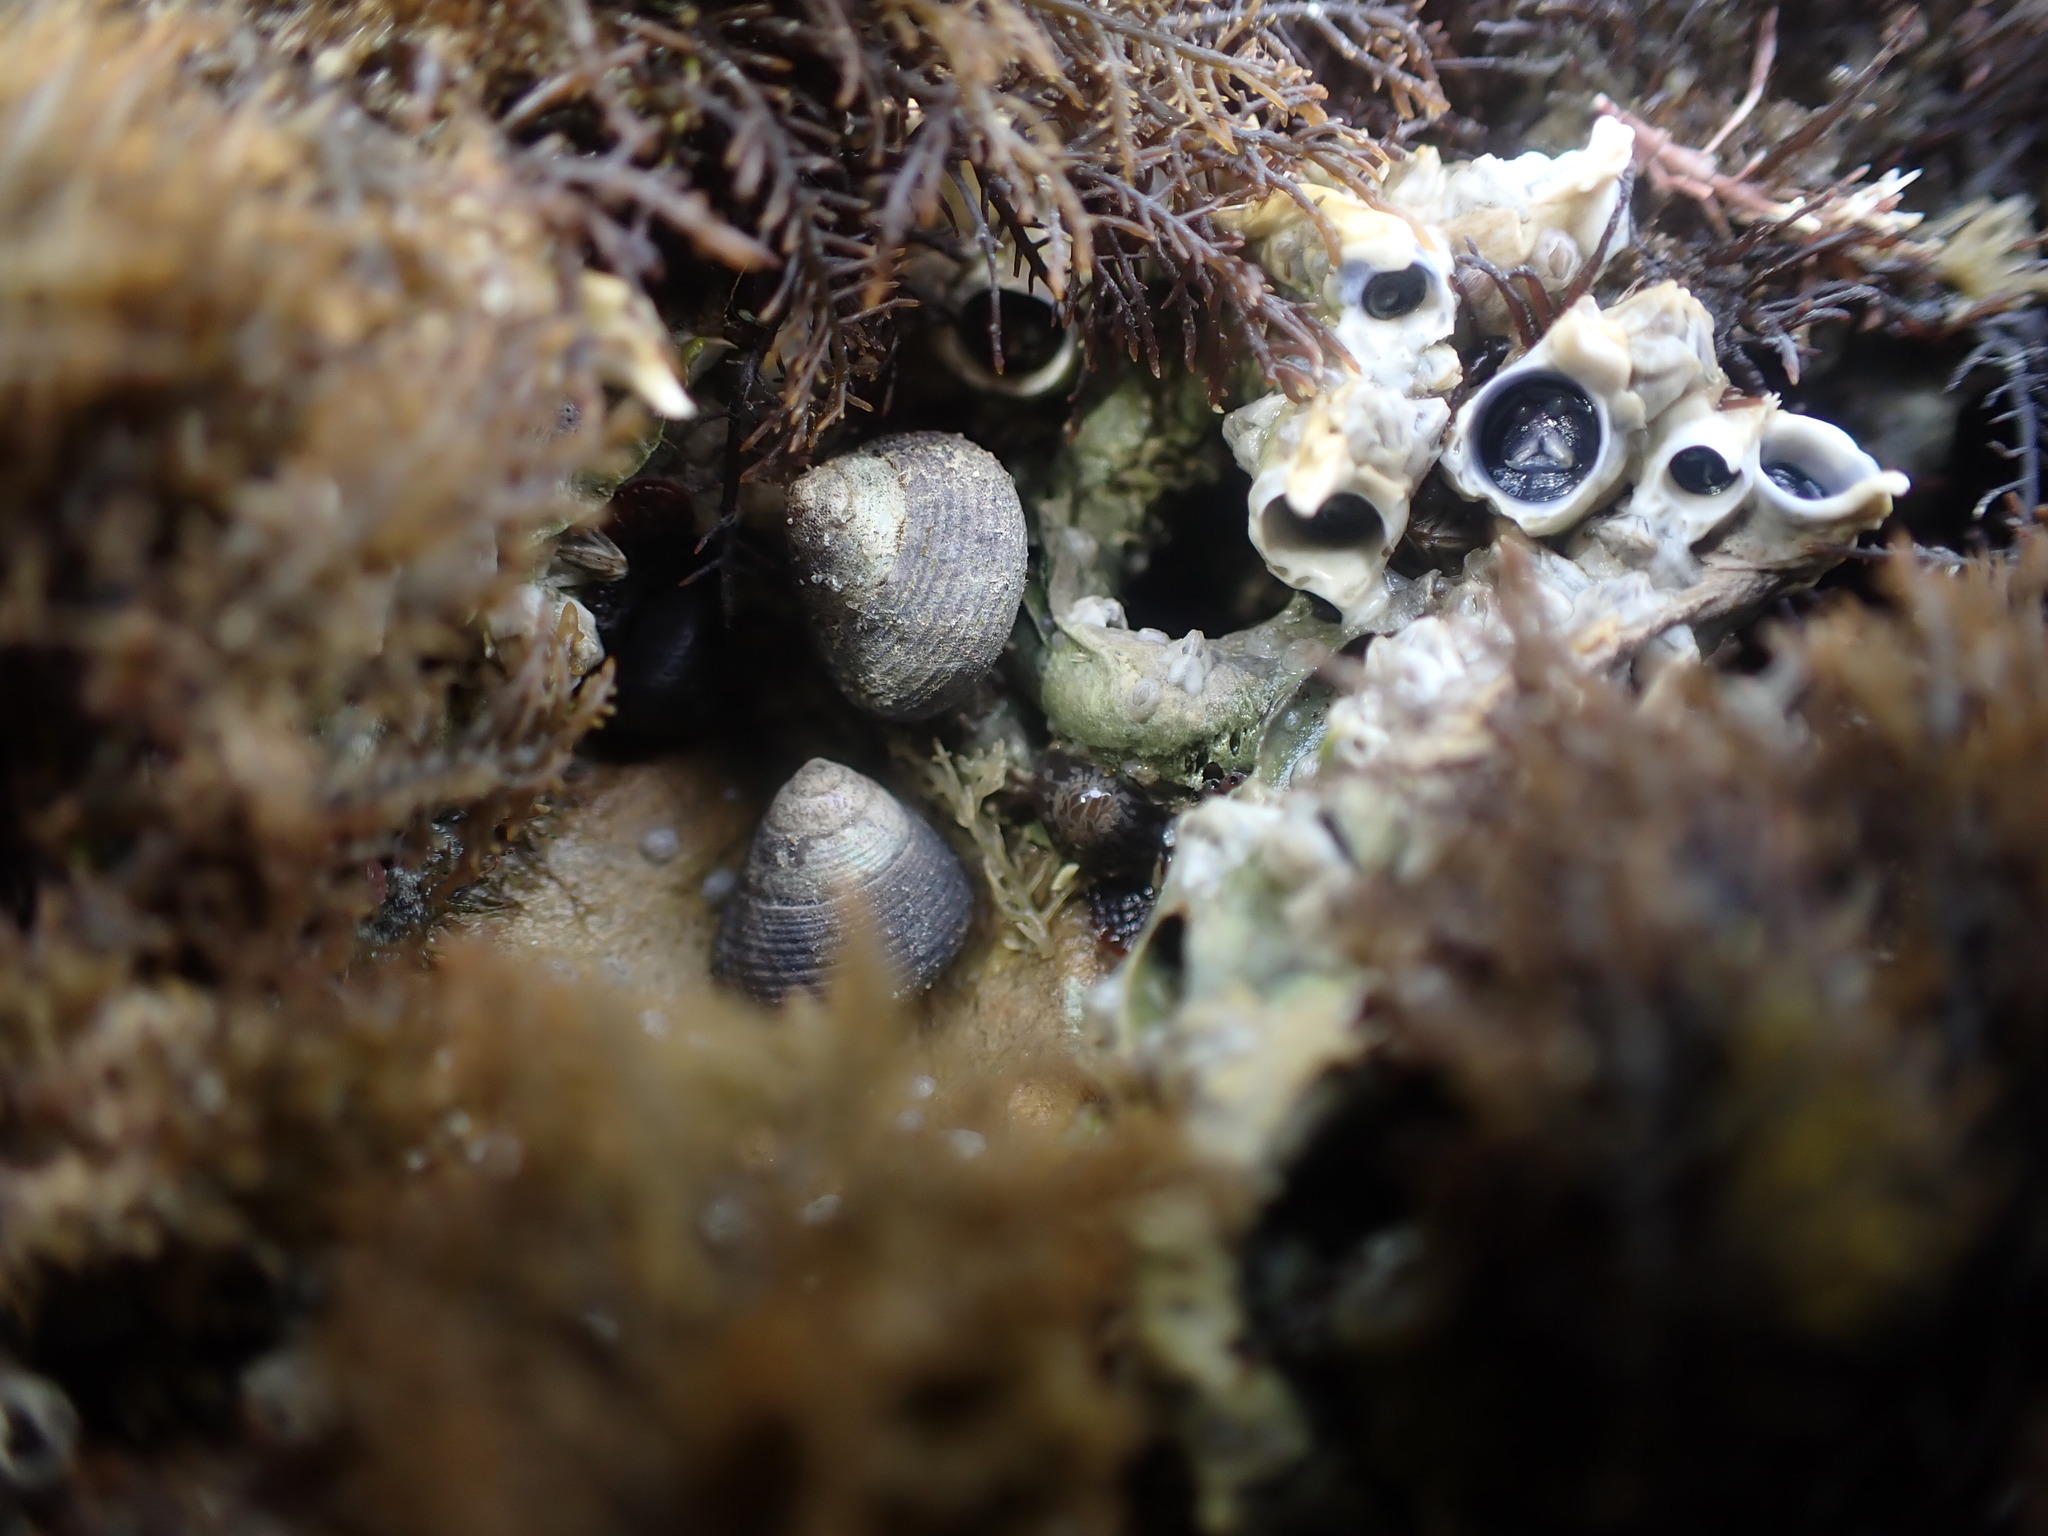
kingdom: Animalia
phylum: Mollusca
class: Gastropoda
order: Trochida
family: Trochidae
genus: Micrelenchus
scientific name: Micrelenchus huttonii
